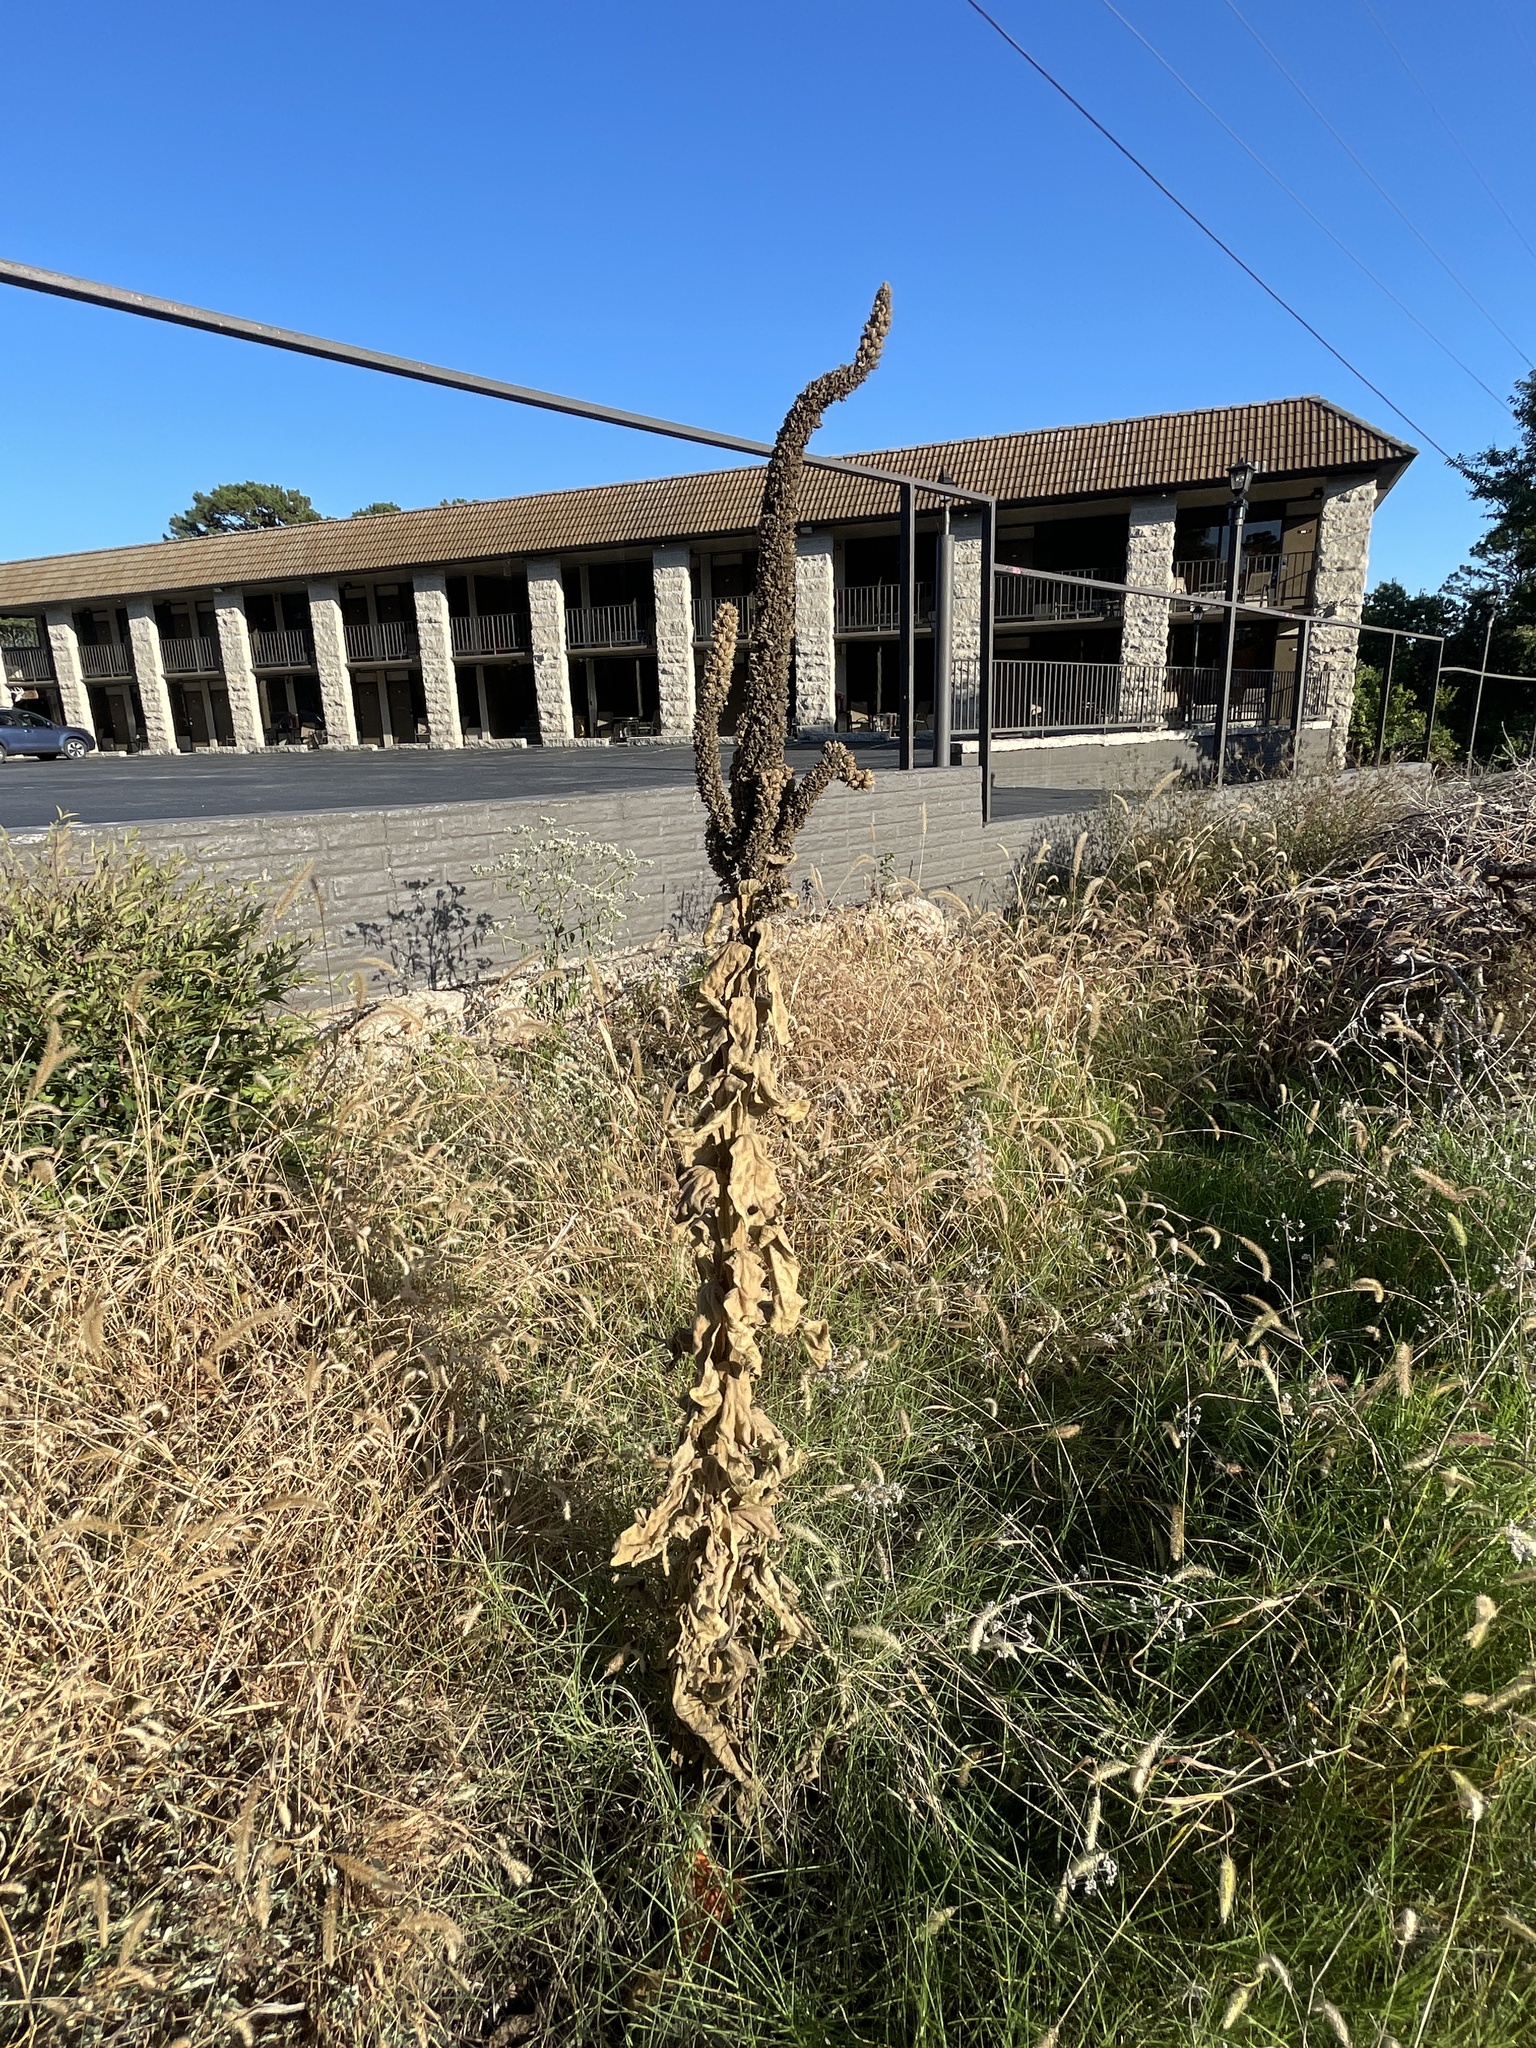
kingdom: Plantae
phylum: Tracheophyta
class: Magnoliopsida
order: Lamiales
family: Scrophulariaceae
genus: Verbascum
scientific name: Verbascum thapsus
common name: Common mullein
